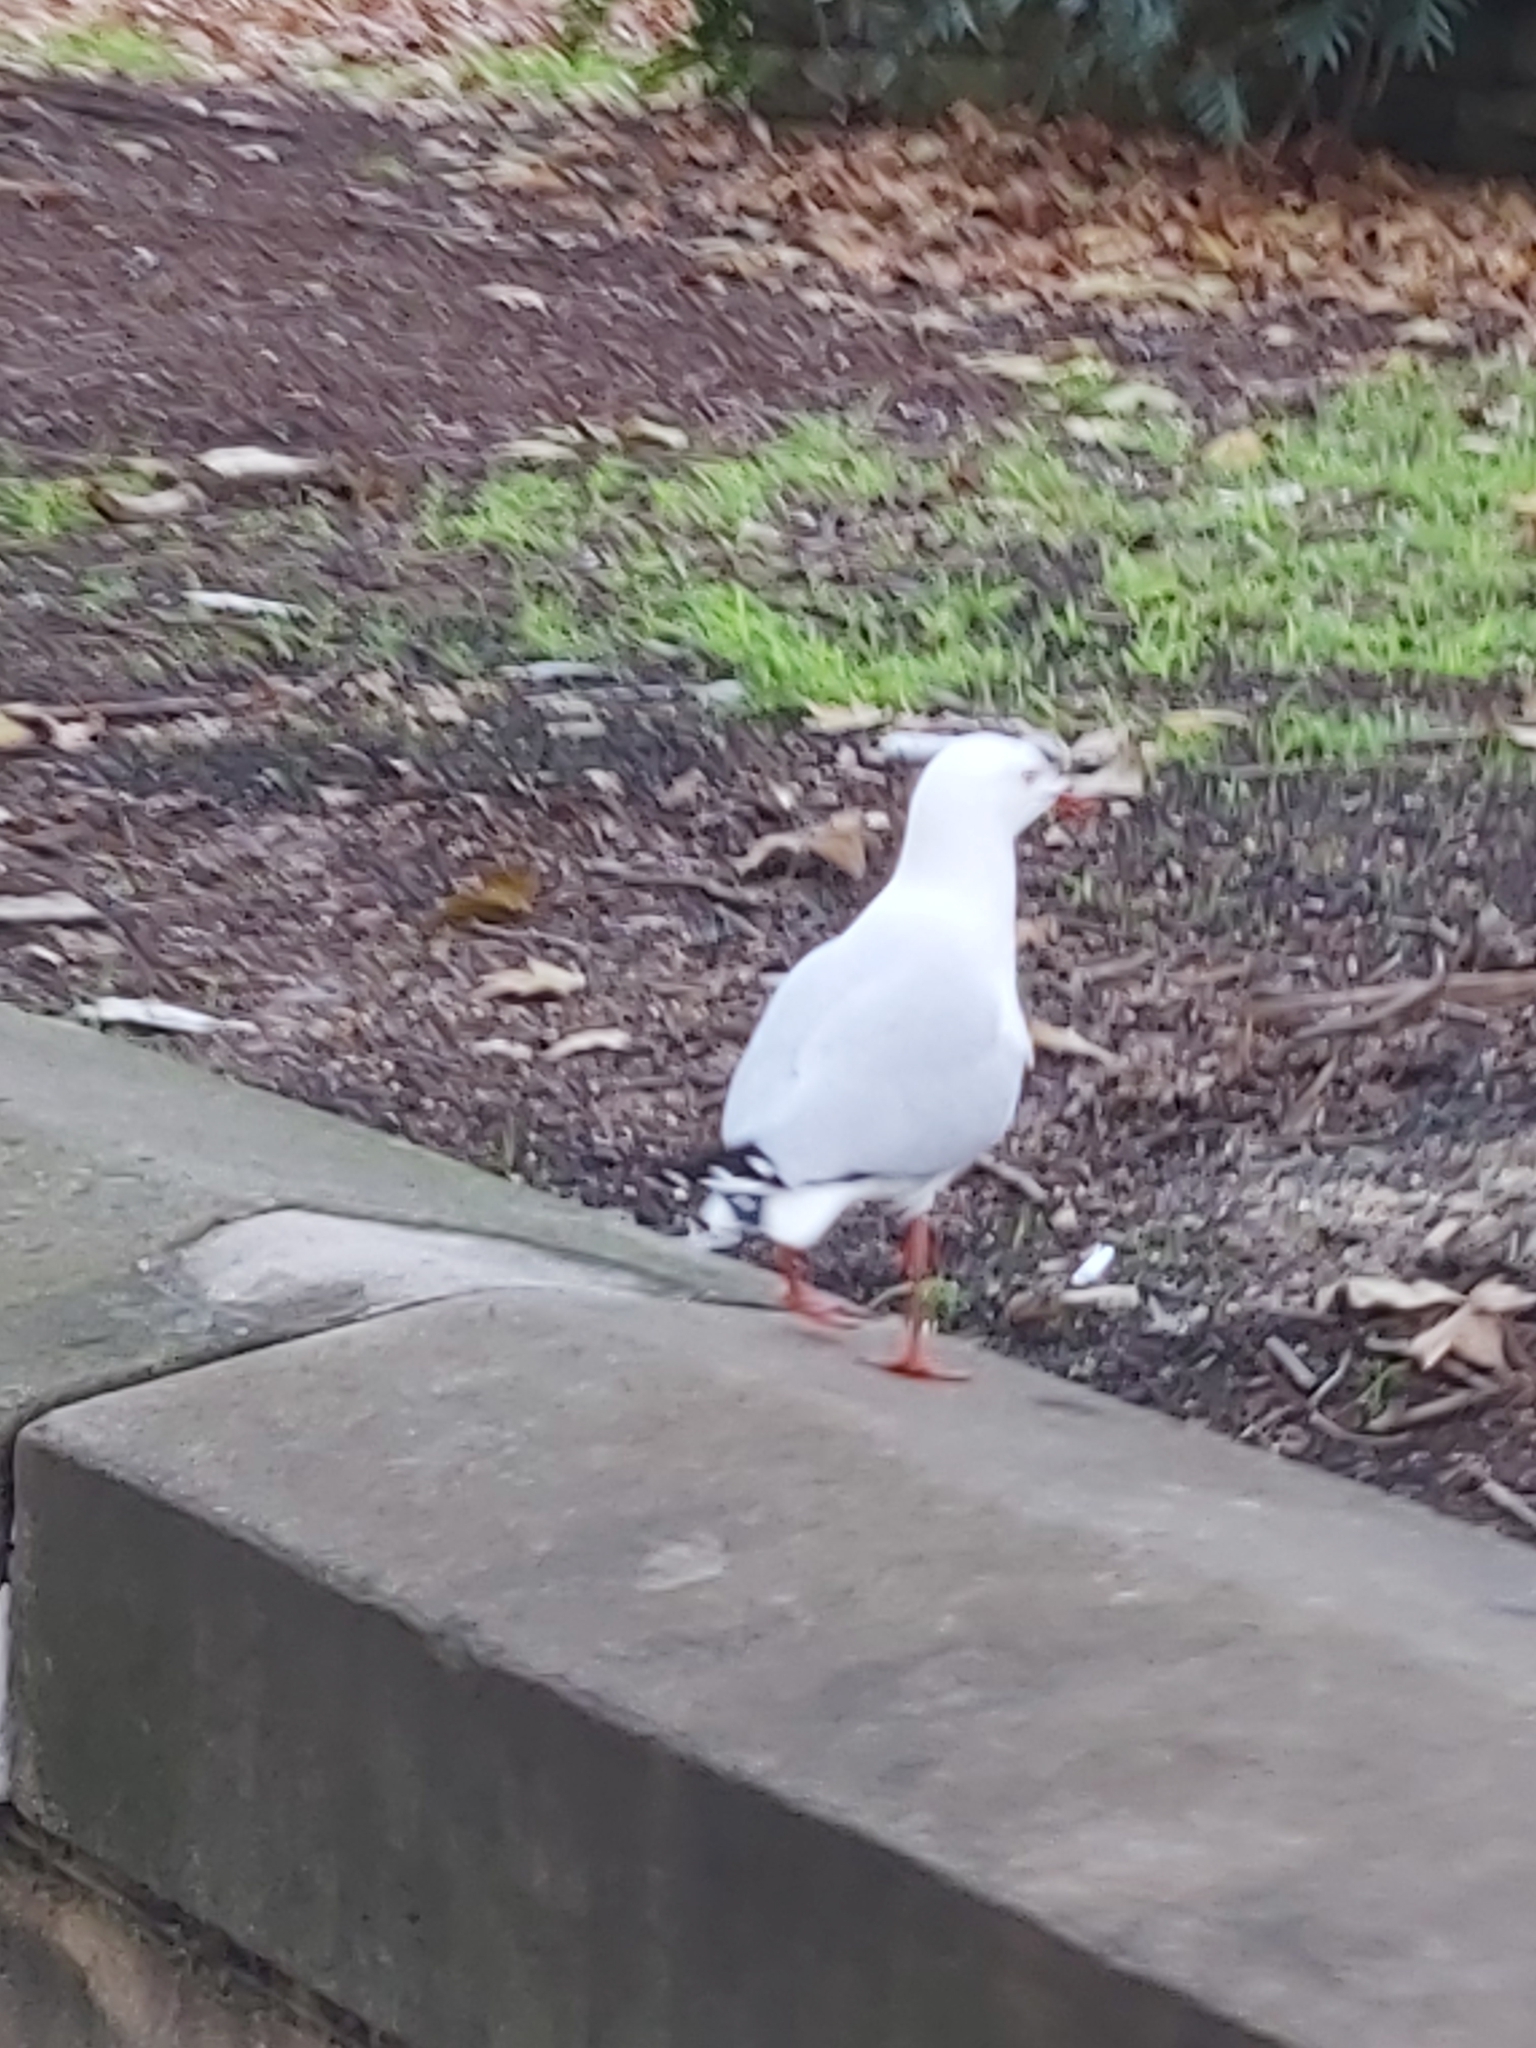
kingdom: Animalia
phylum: Chordata
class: Aves
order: Charadriiformes
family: Laridae
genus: Chroicocephalus
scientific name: Chroicocephalus novaehollandiae
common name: Silver gull
